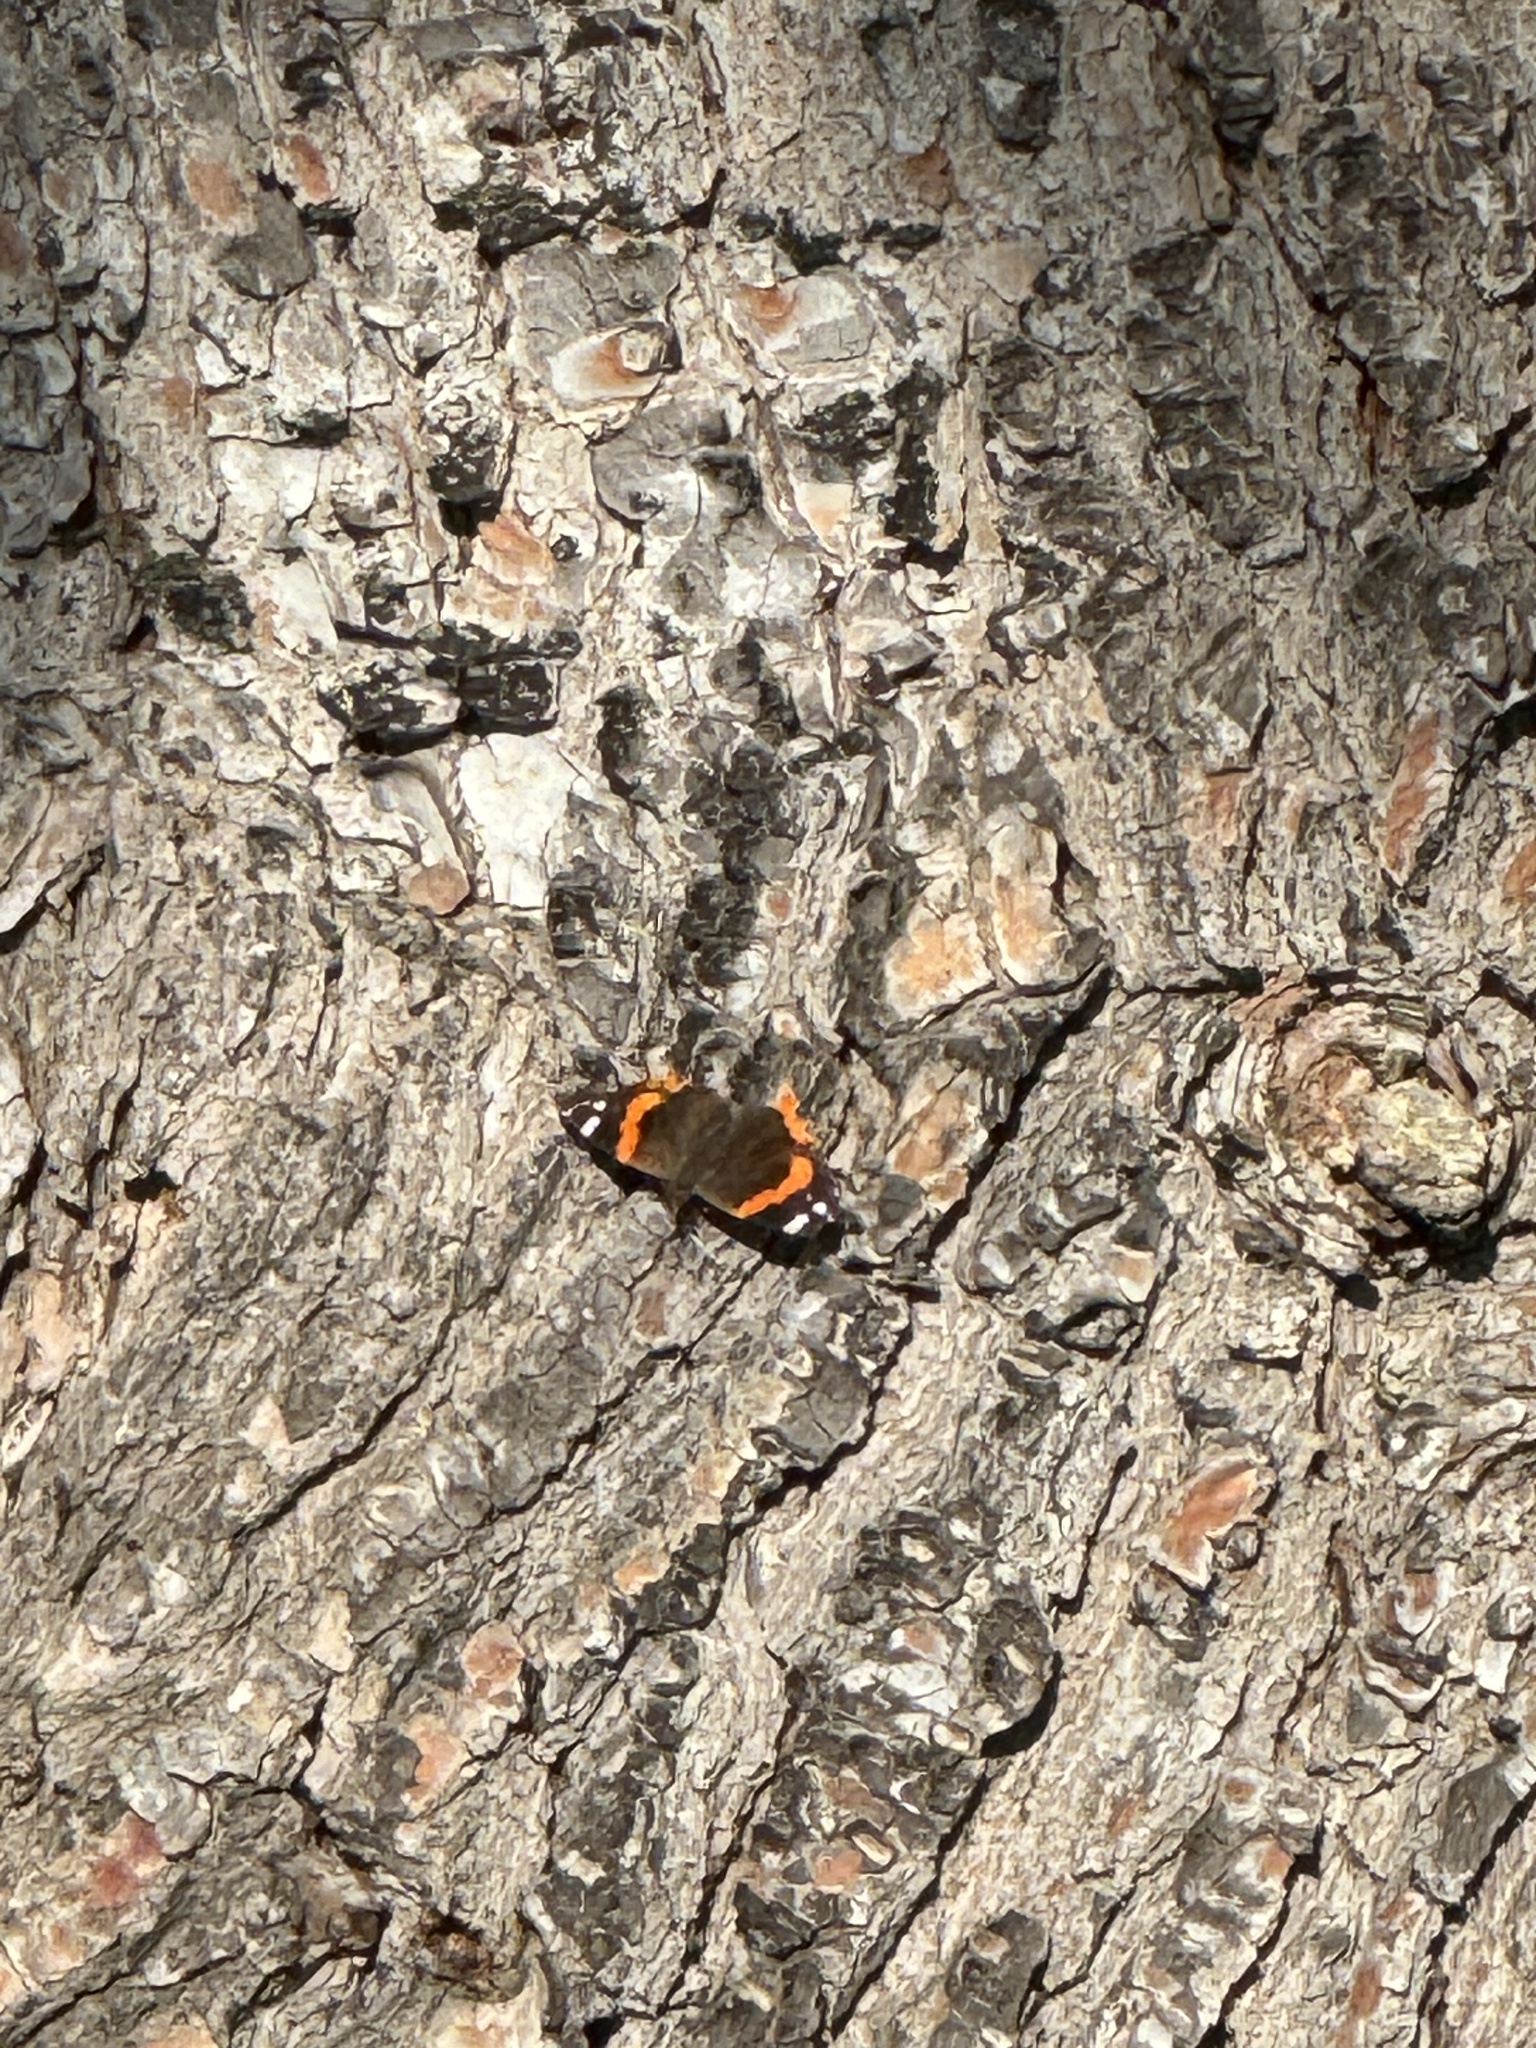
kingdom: Animalia
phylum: Arthropoda
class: Insecta
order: Lepidoptera
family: Nymphalidae
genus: Vanessa
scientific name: Vanessa atalanta
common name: Red admiral
